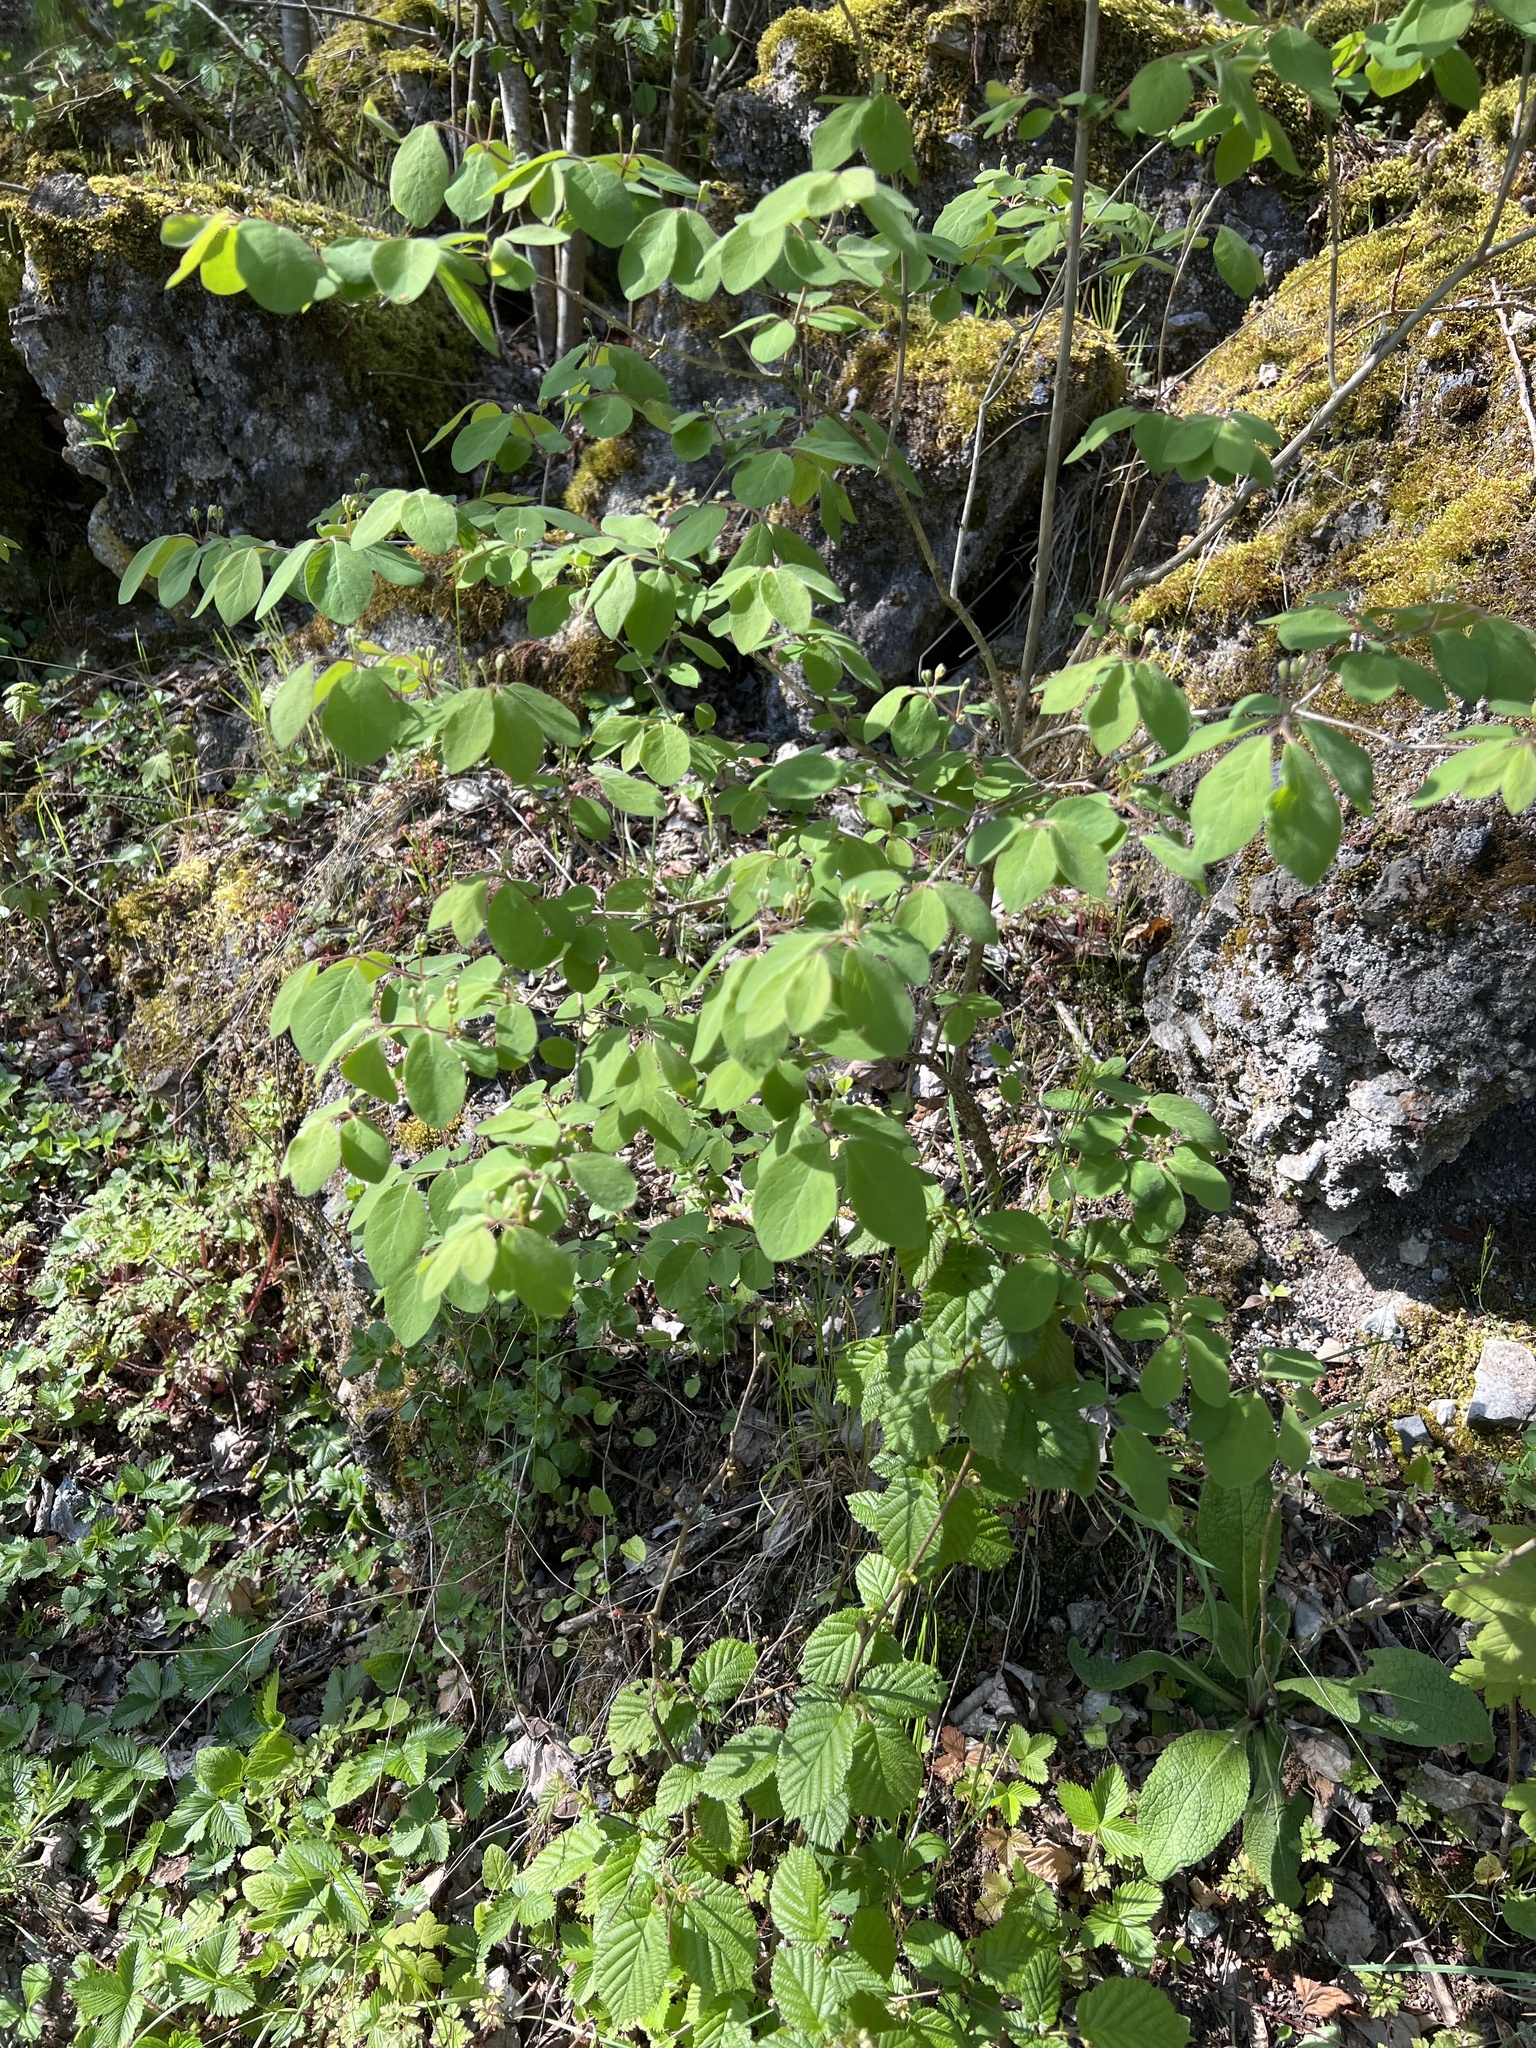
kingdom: Plantae
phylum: Tracheophyta
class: Magnoliopsida
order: Dipsacales
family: Caprifoliaceae
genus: Lonicera
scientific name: Lonicera xylosteum
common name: Fly honeysuckle
